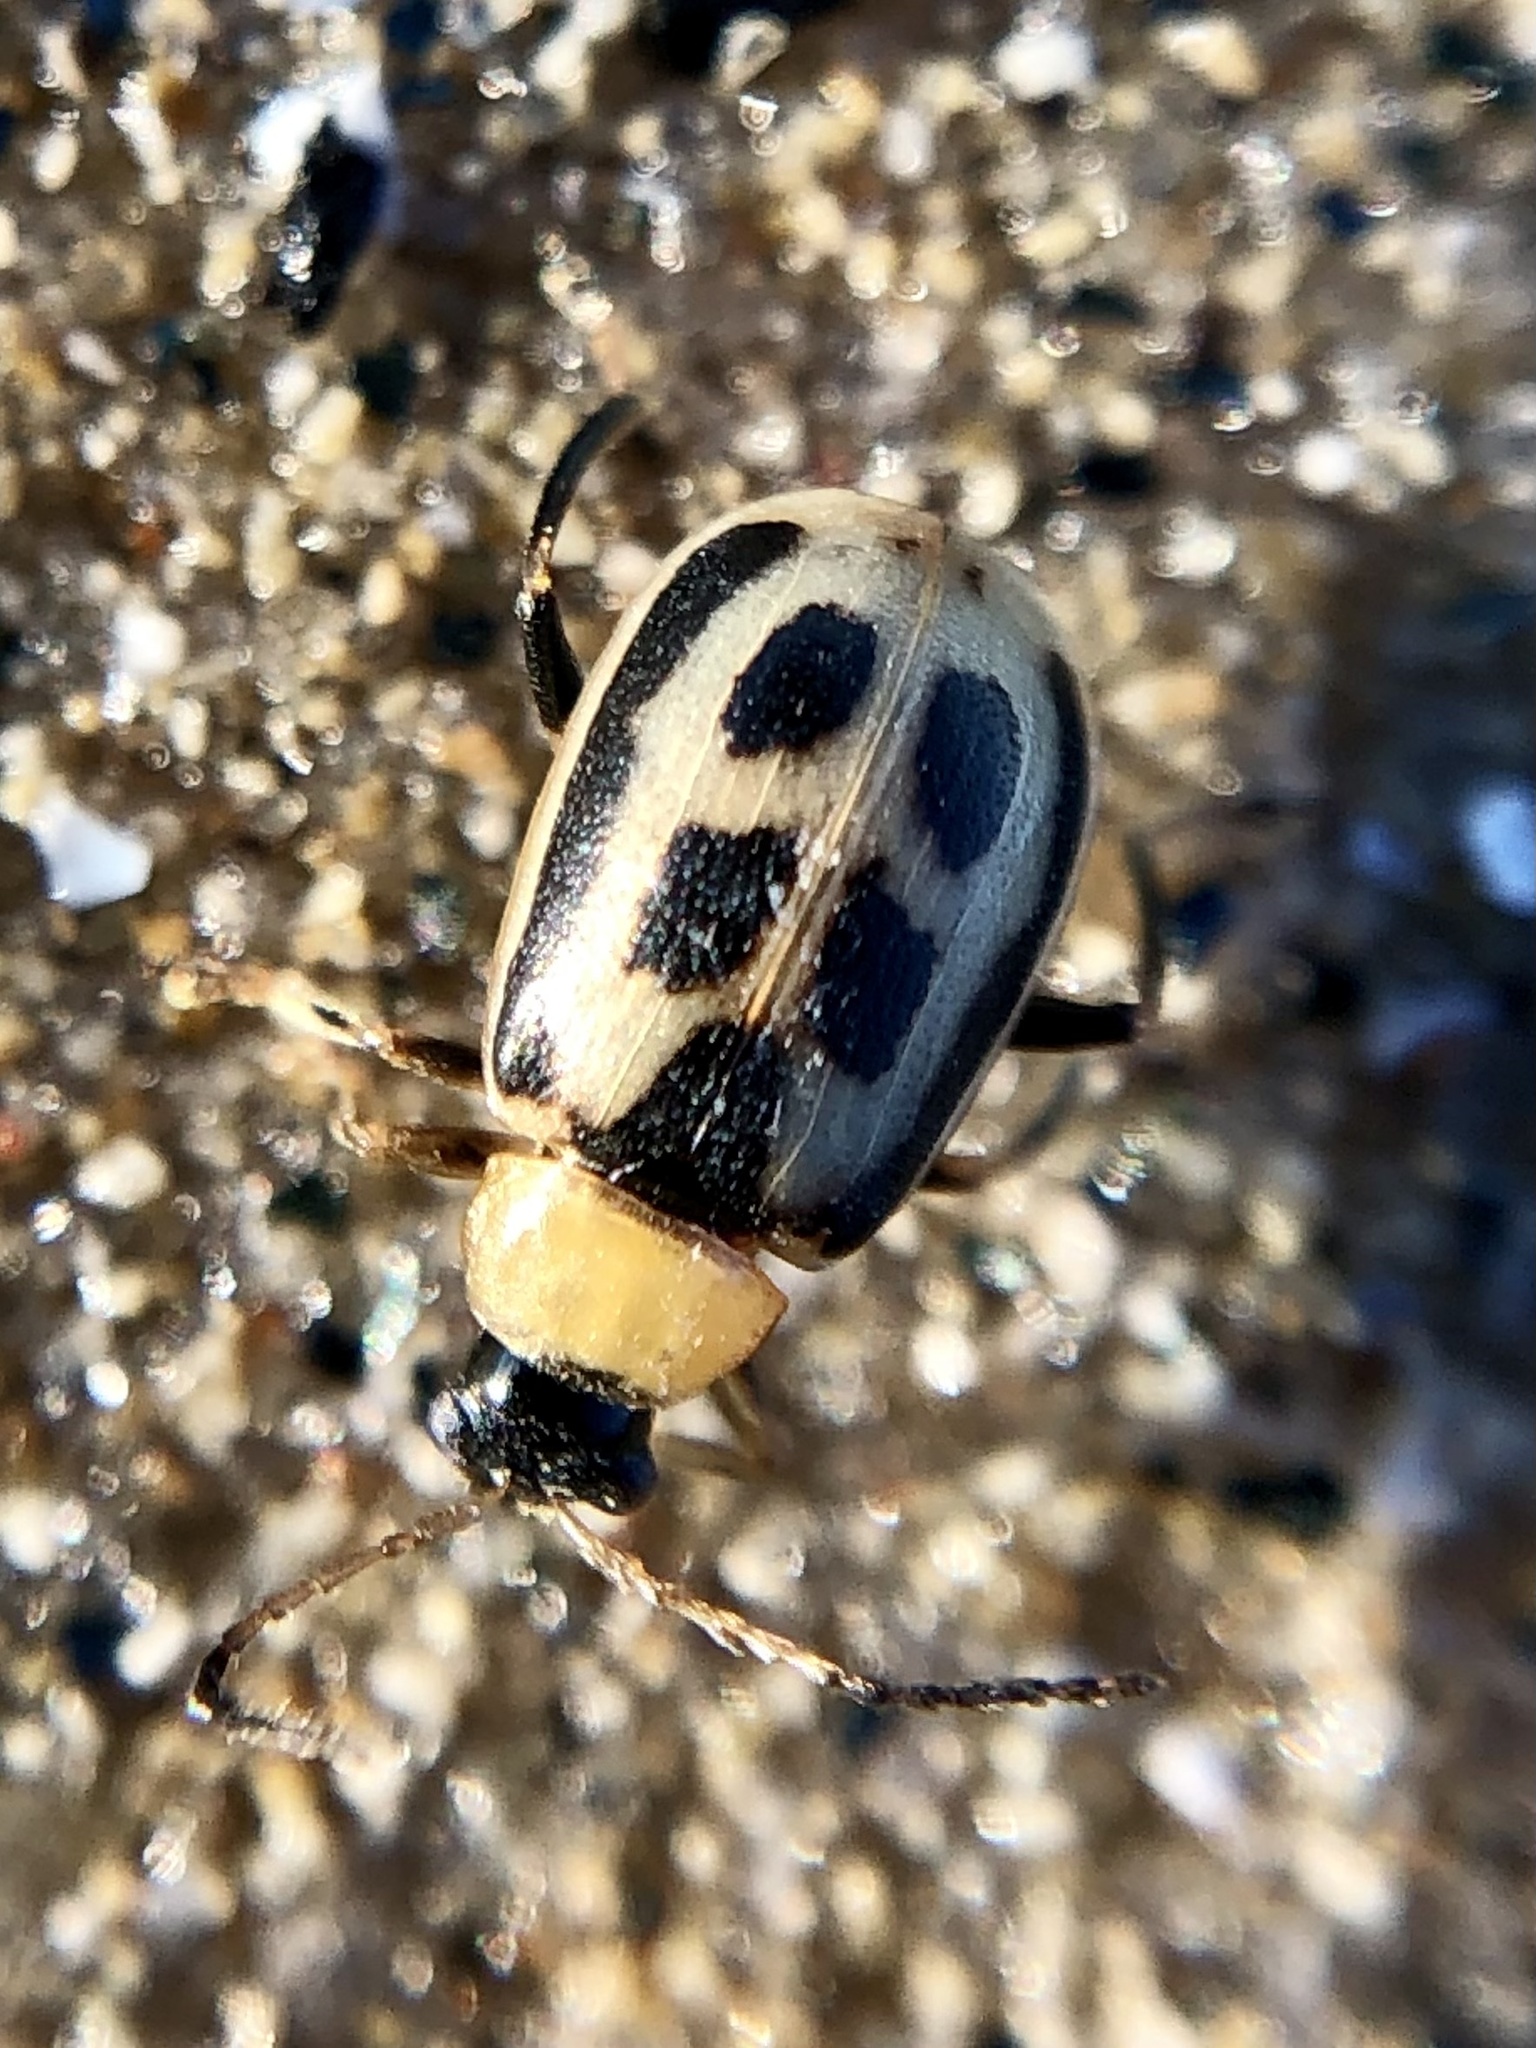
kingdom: Animalia
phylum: Arthropoda
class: Insecta
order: Coleoptera
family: Chrysomelidae
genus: Cerotoma
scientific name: Cerotoma trifurcata
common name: Bean leaf beetle
